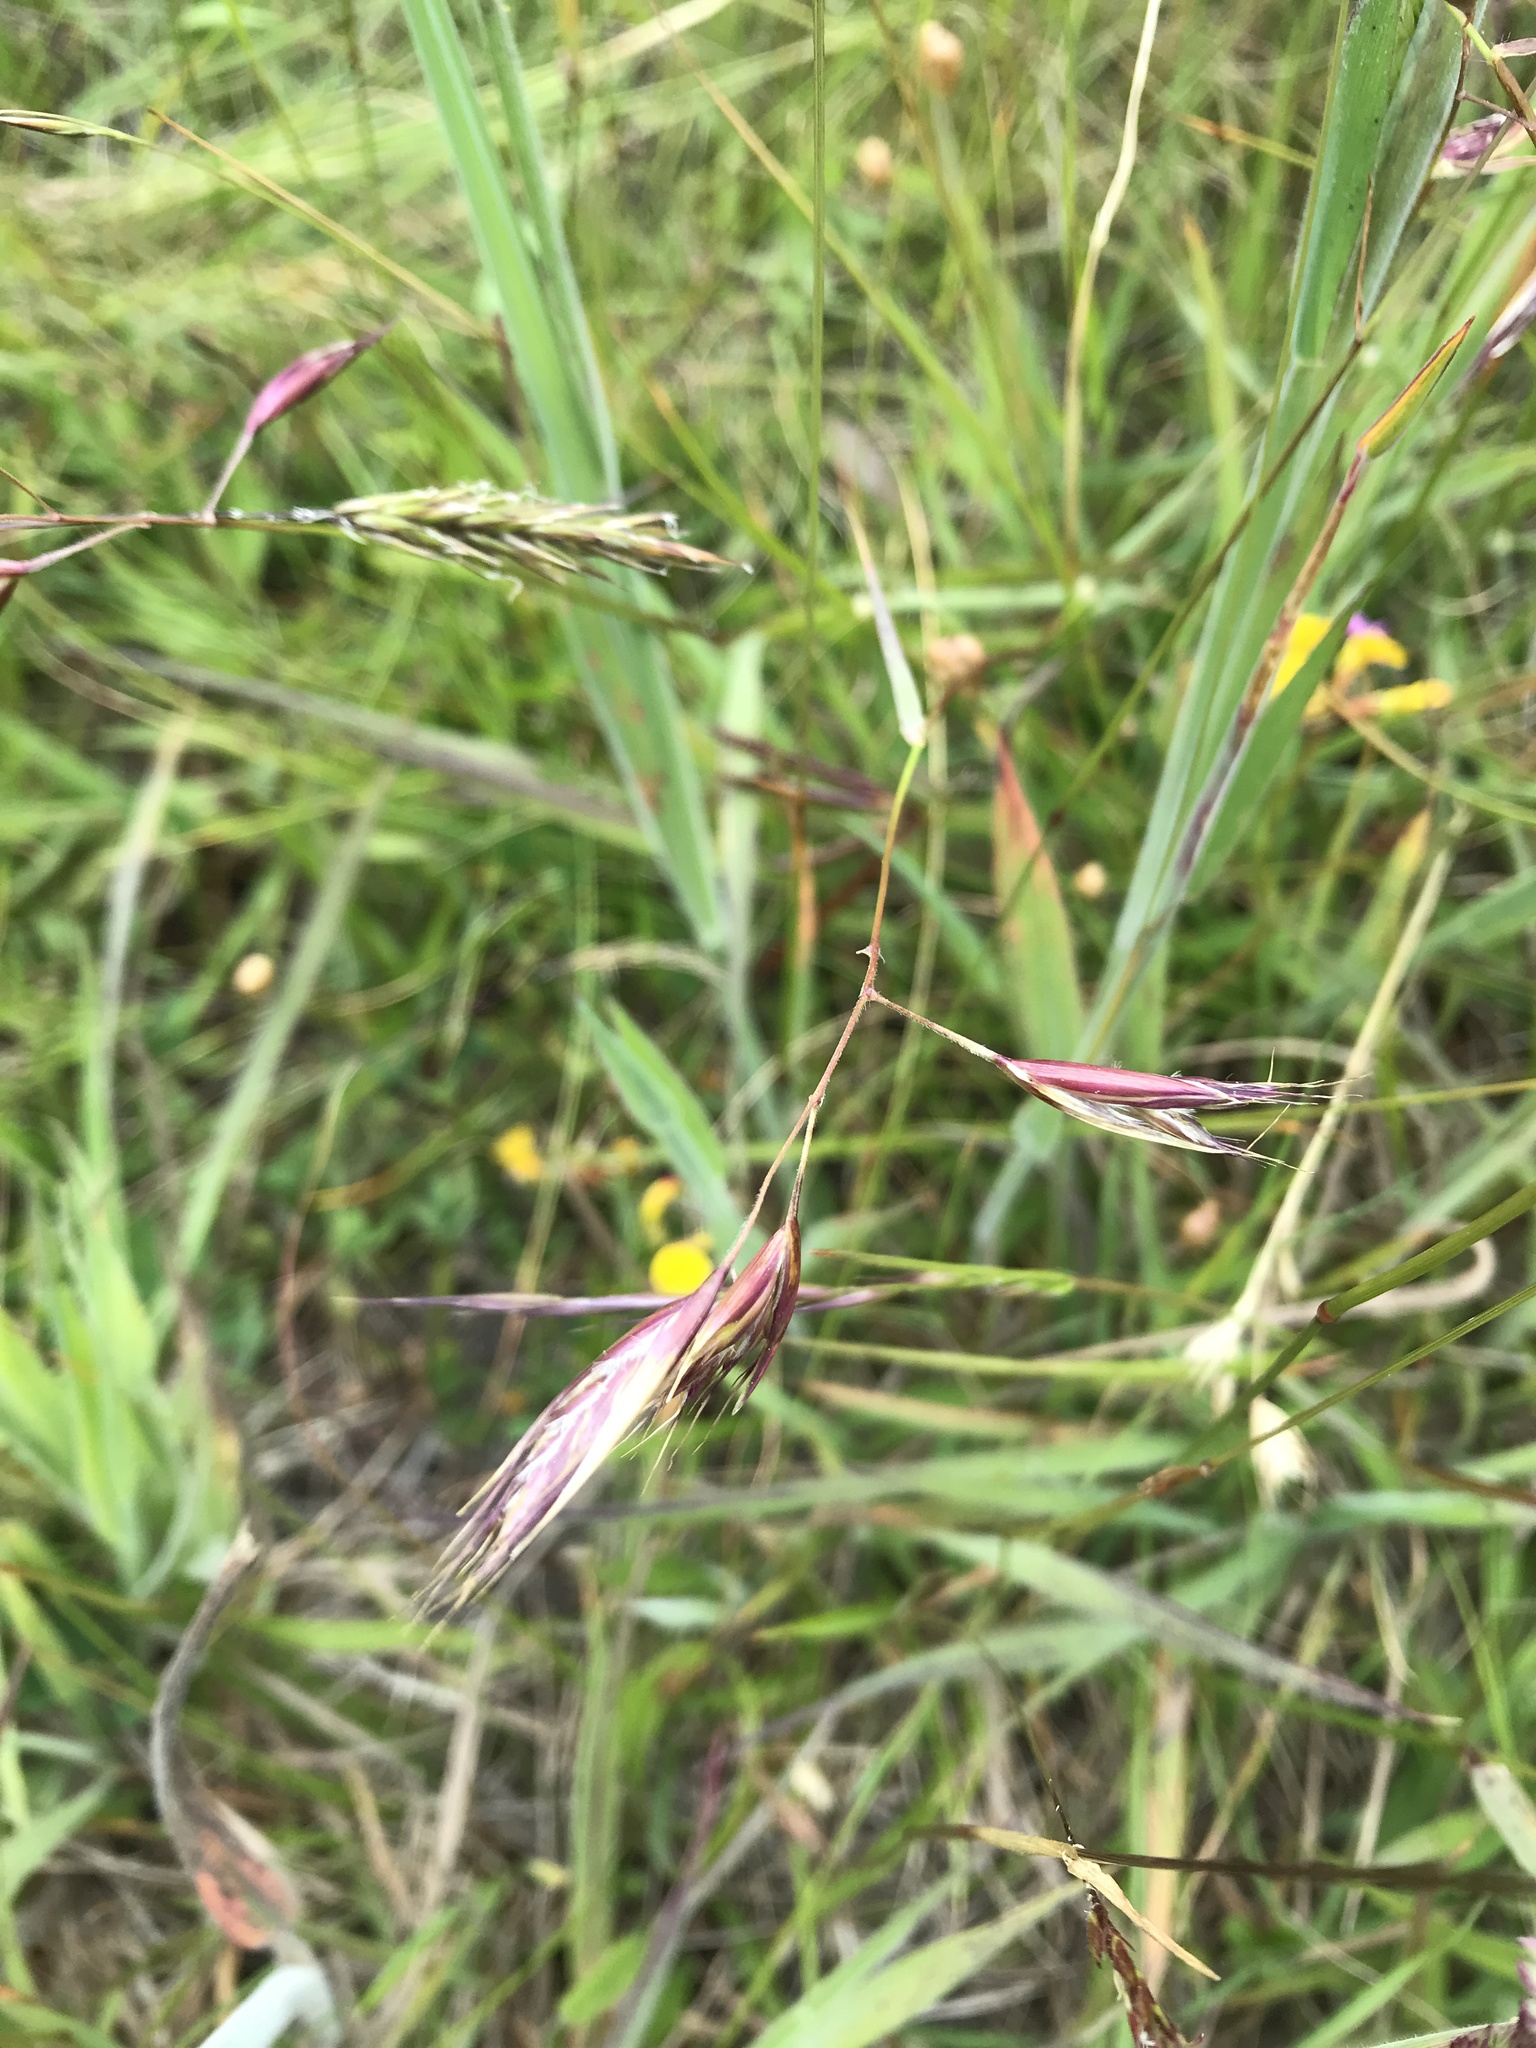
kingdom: Plantae
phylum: Tracheophyta
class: Liliopsida
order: Poales
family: Poaceae
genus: Danthonia
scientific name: Danthonia californica
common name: California oat grass
